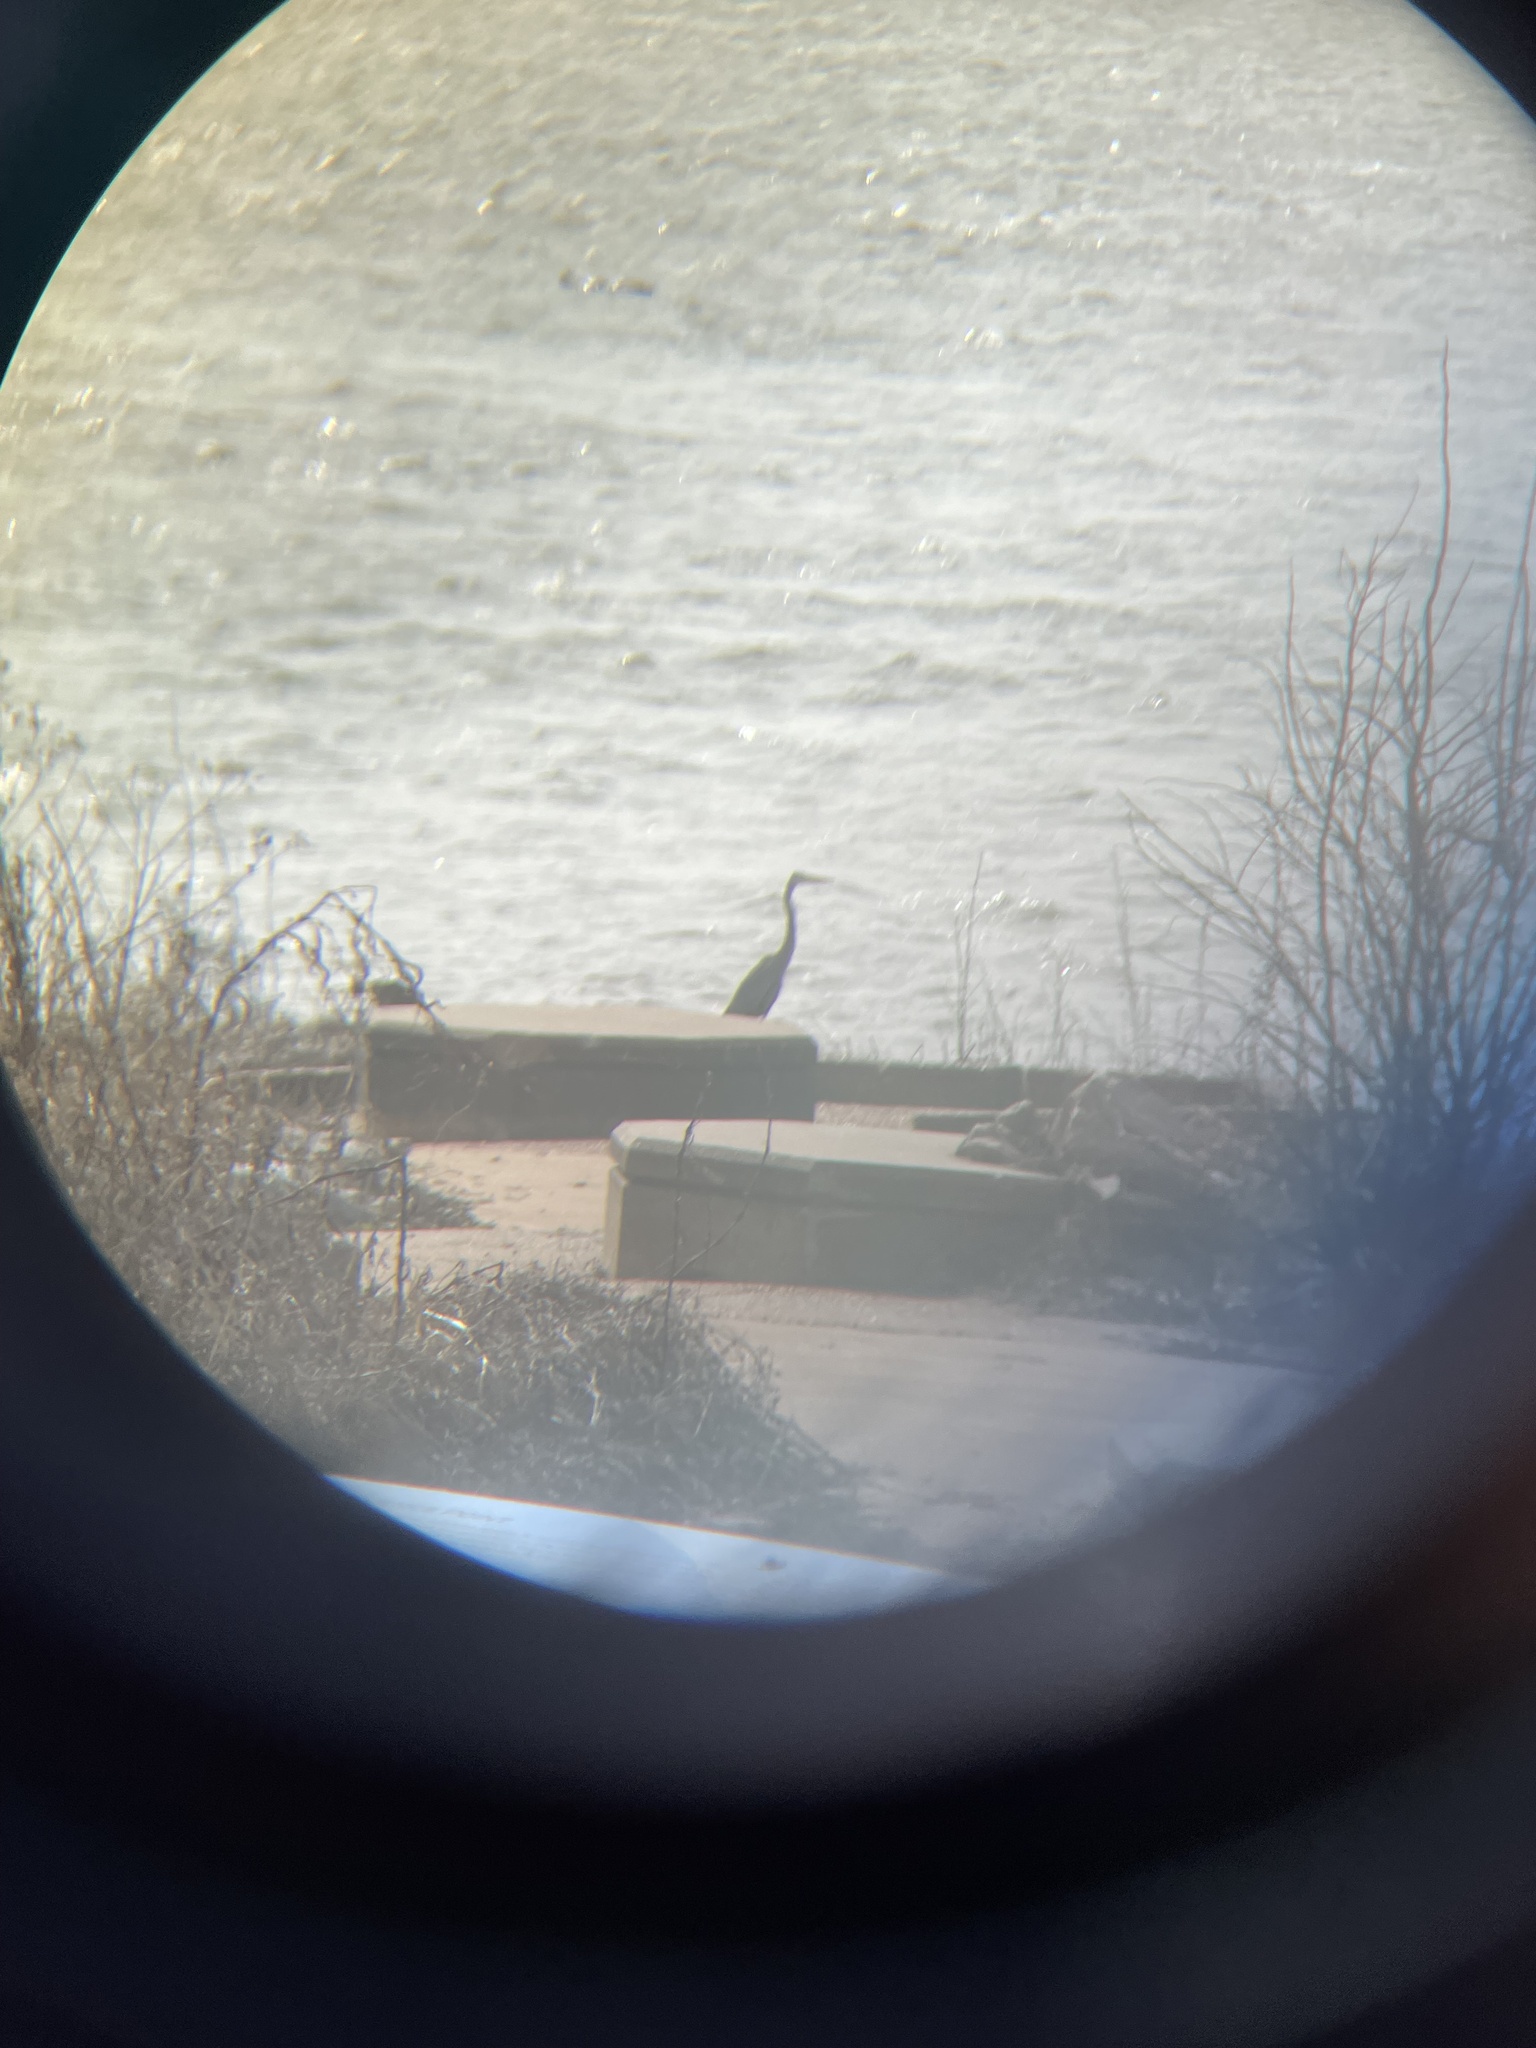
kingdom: Animalia
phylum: Chordata
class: Aves
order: Pelecaniformes
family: Ardeidae
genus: Ardea
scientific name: Ardea herodias
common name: Great blue heron
